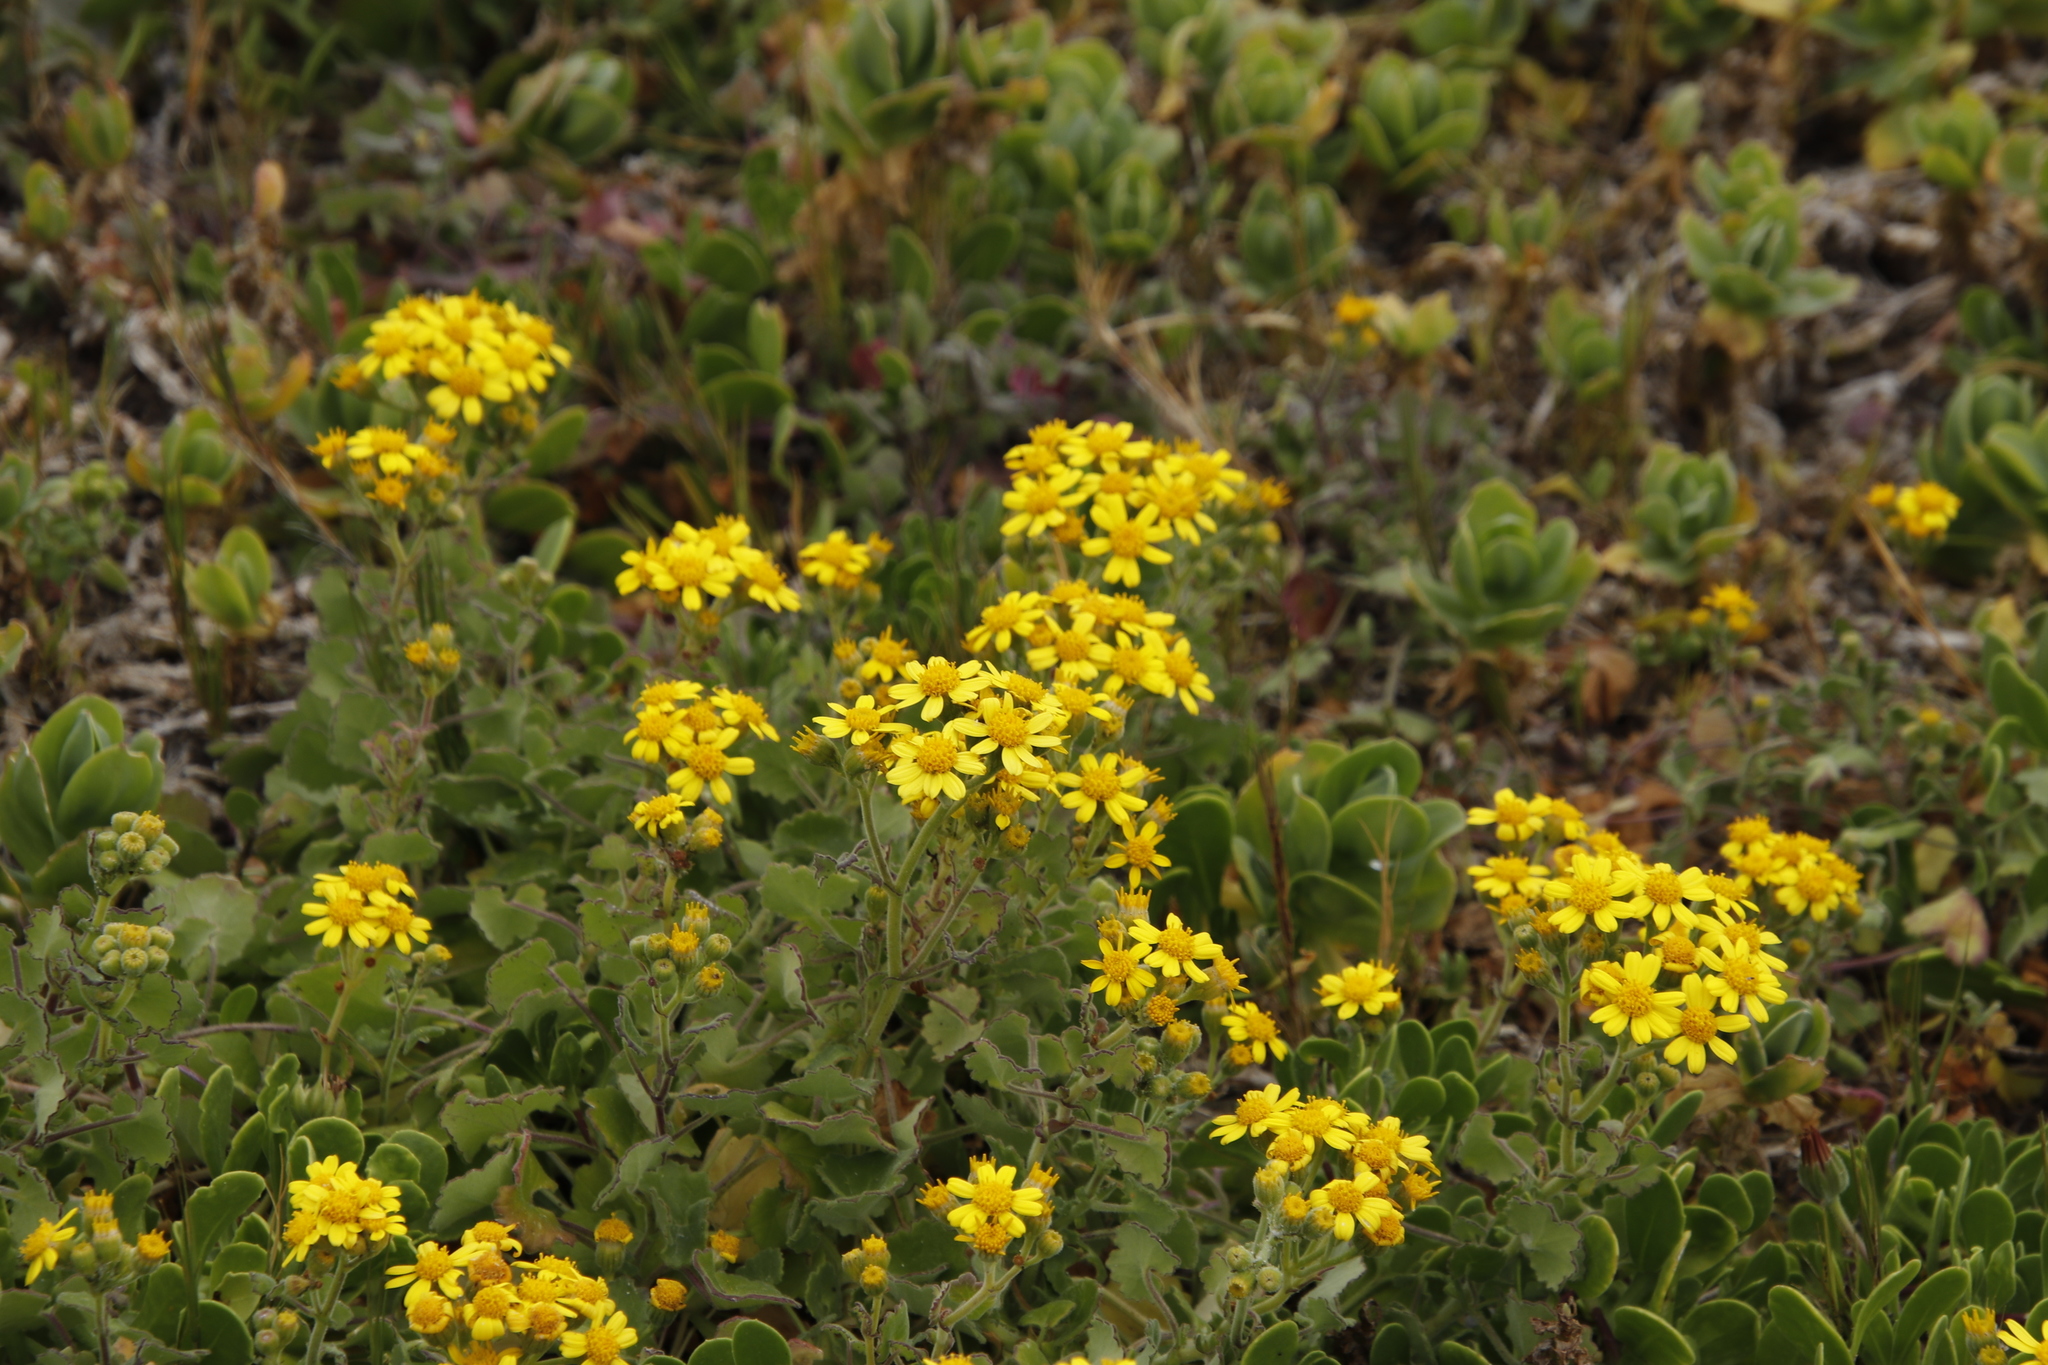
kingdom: Plantae
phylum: Tracheophyta
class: Magnoliopsida
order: Asterales
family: Asteraceae
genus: Cineraria
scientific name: Cineraria geifolia
